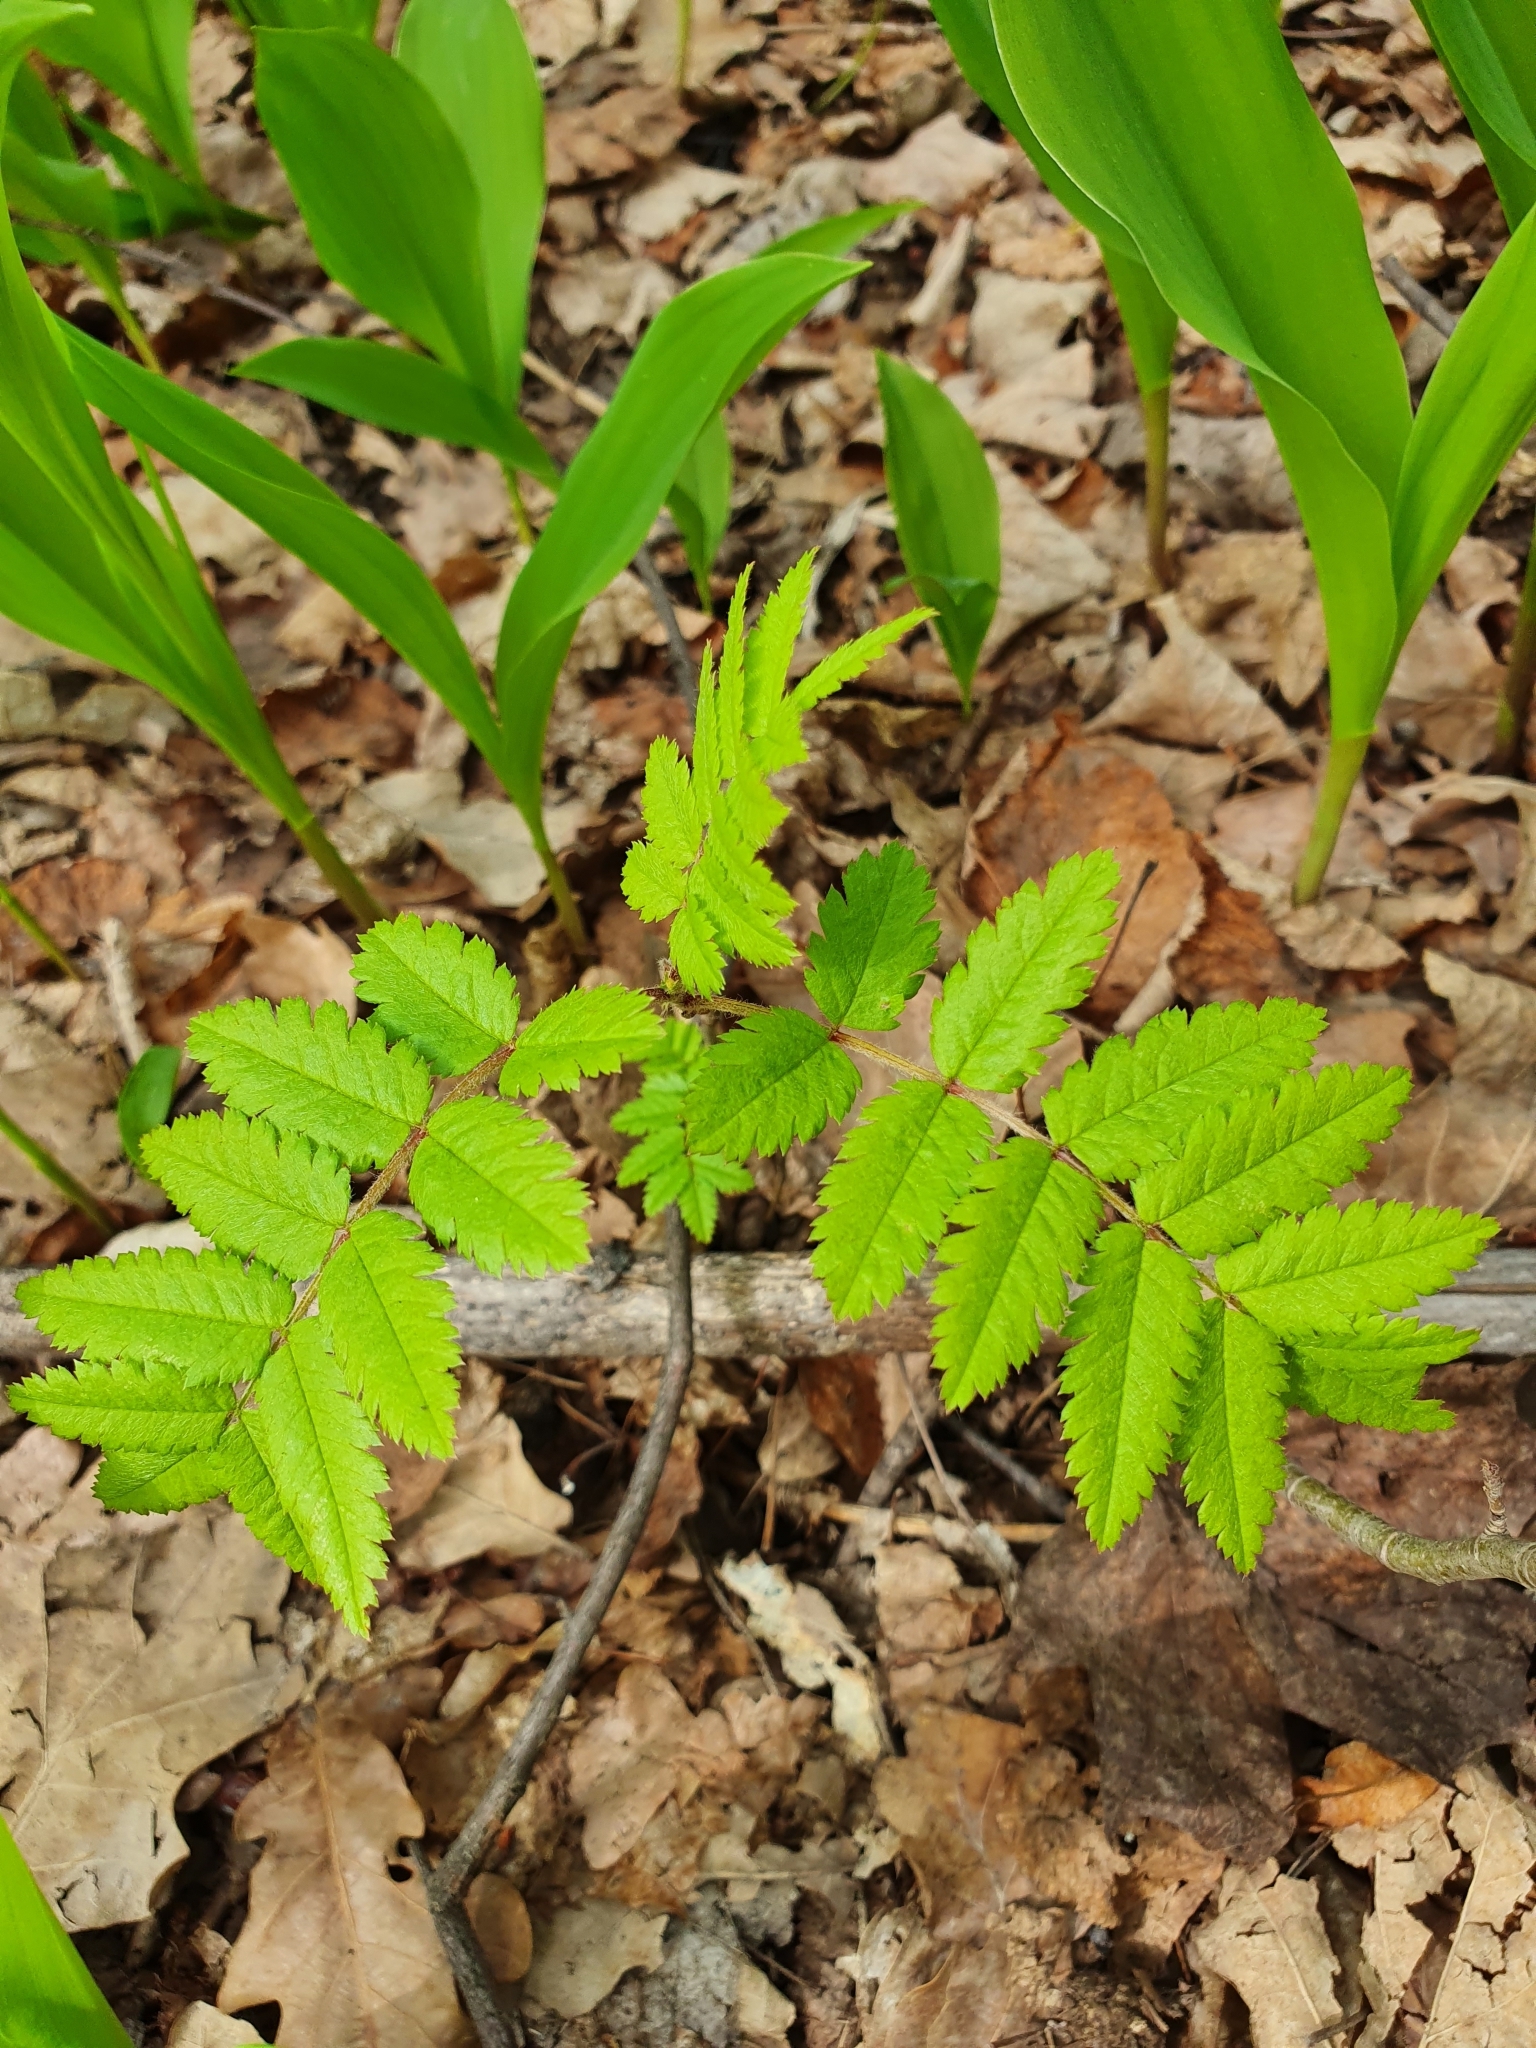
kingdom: Plantae
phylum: Tracheophyta
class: Magnoliopsida
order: Rosales
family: Rosaceae
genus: Sorbus
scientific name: Sorbus aucuparia
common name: Rowan
